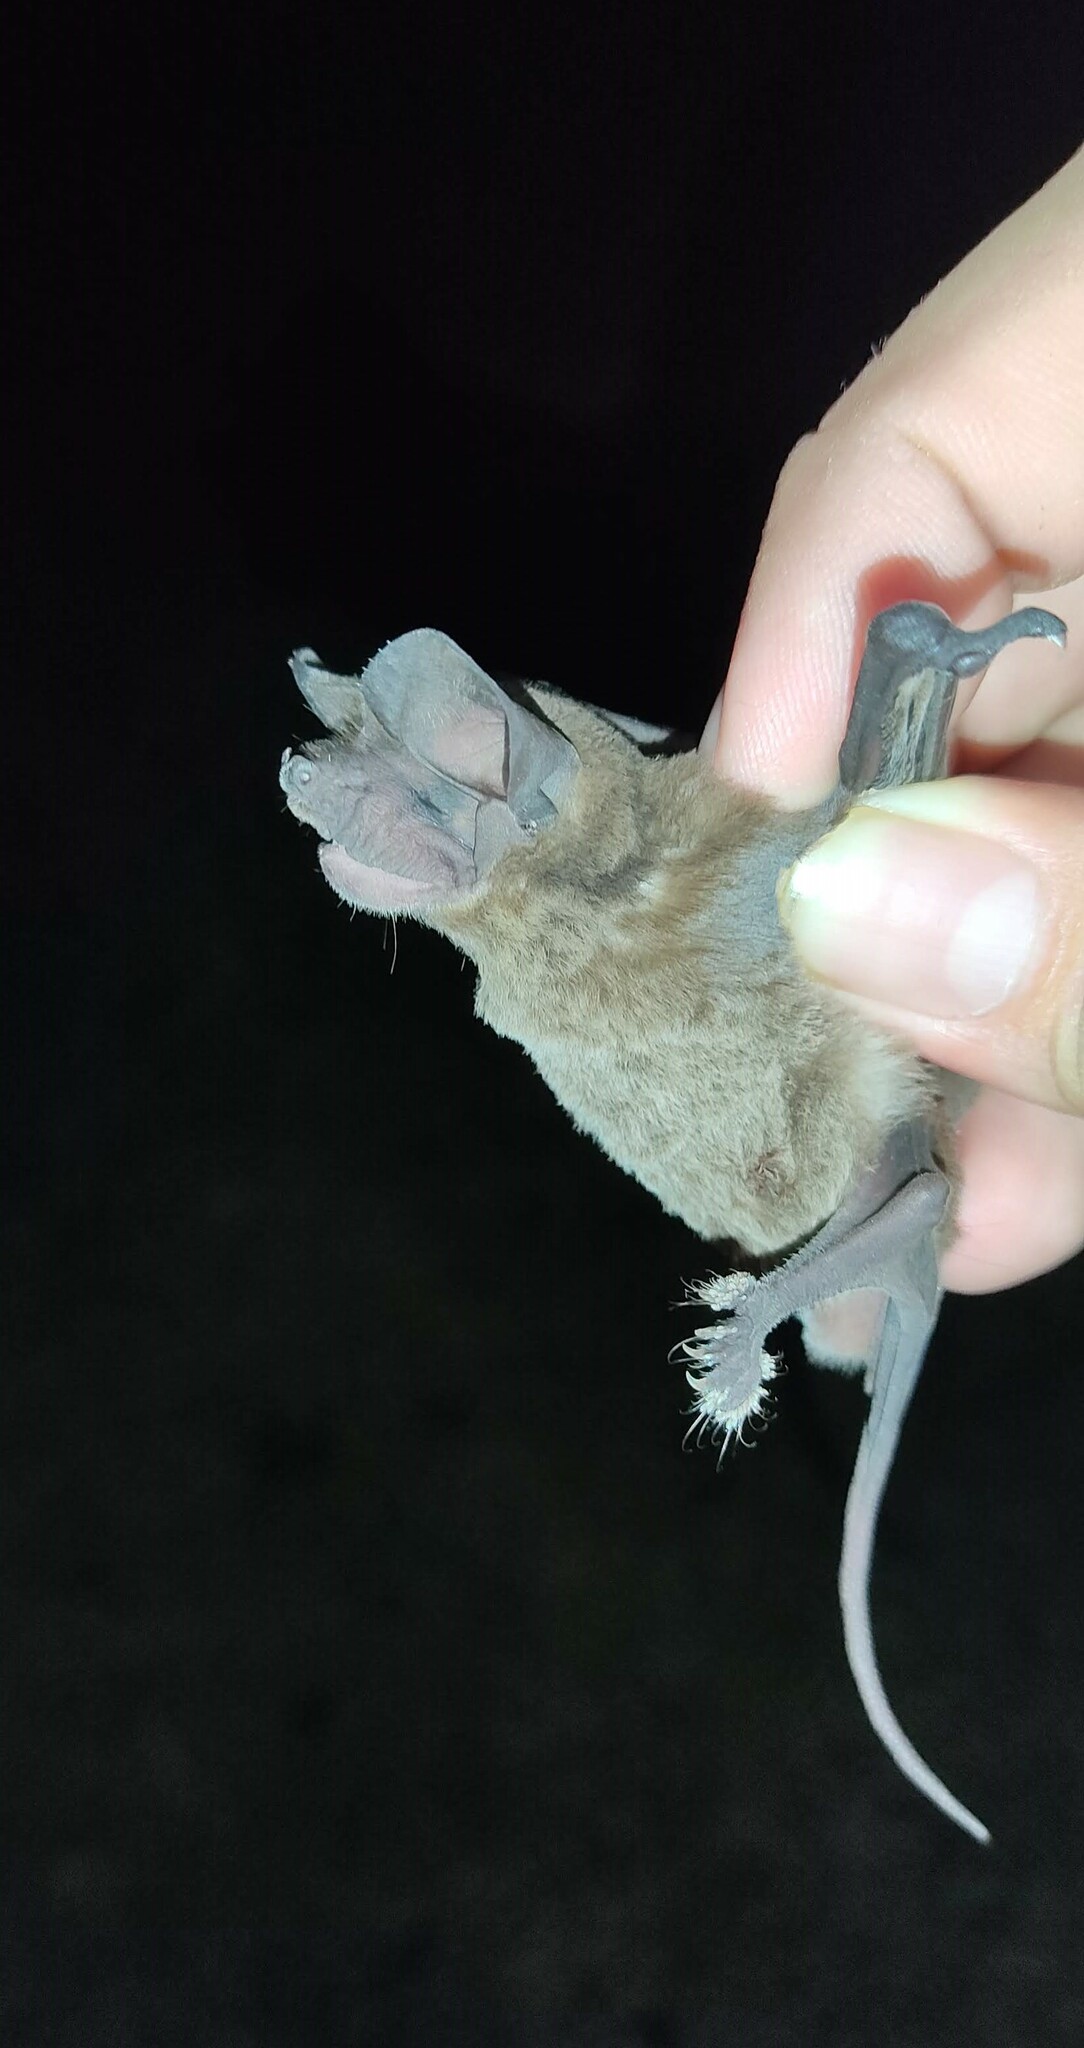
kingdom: Animalia
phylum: Chordata
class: Mammalia
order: Chiroptera
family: Molossidae
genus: Nyctinomops
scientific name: Nyctinomops laticaudatus
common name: Broad-eared free-tailed bat
